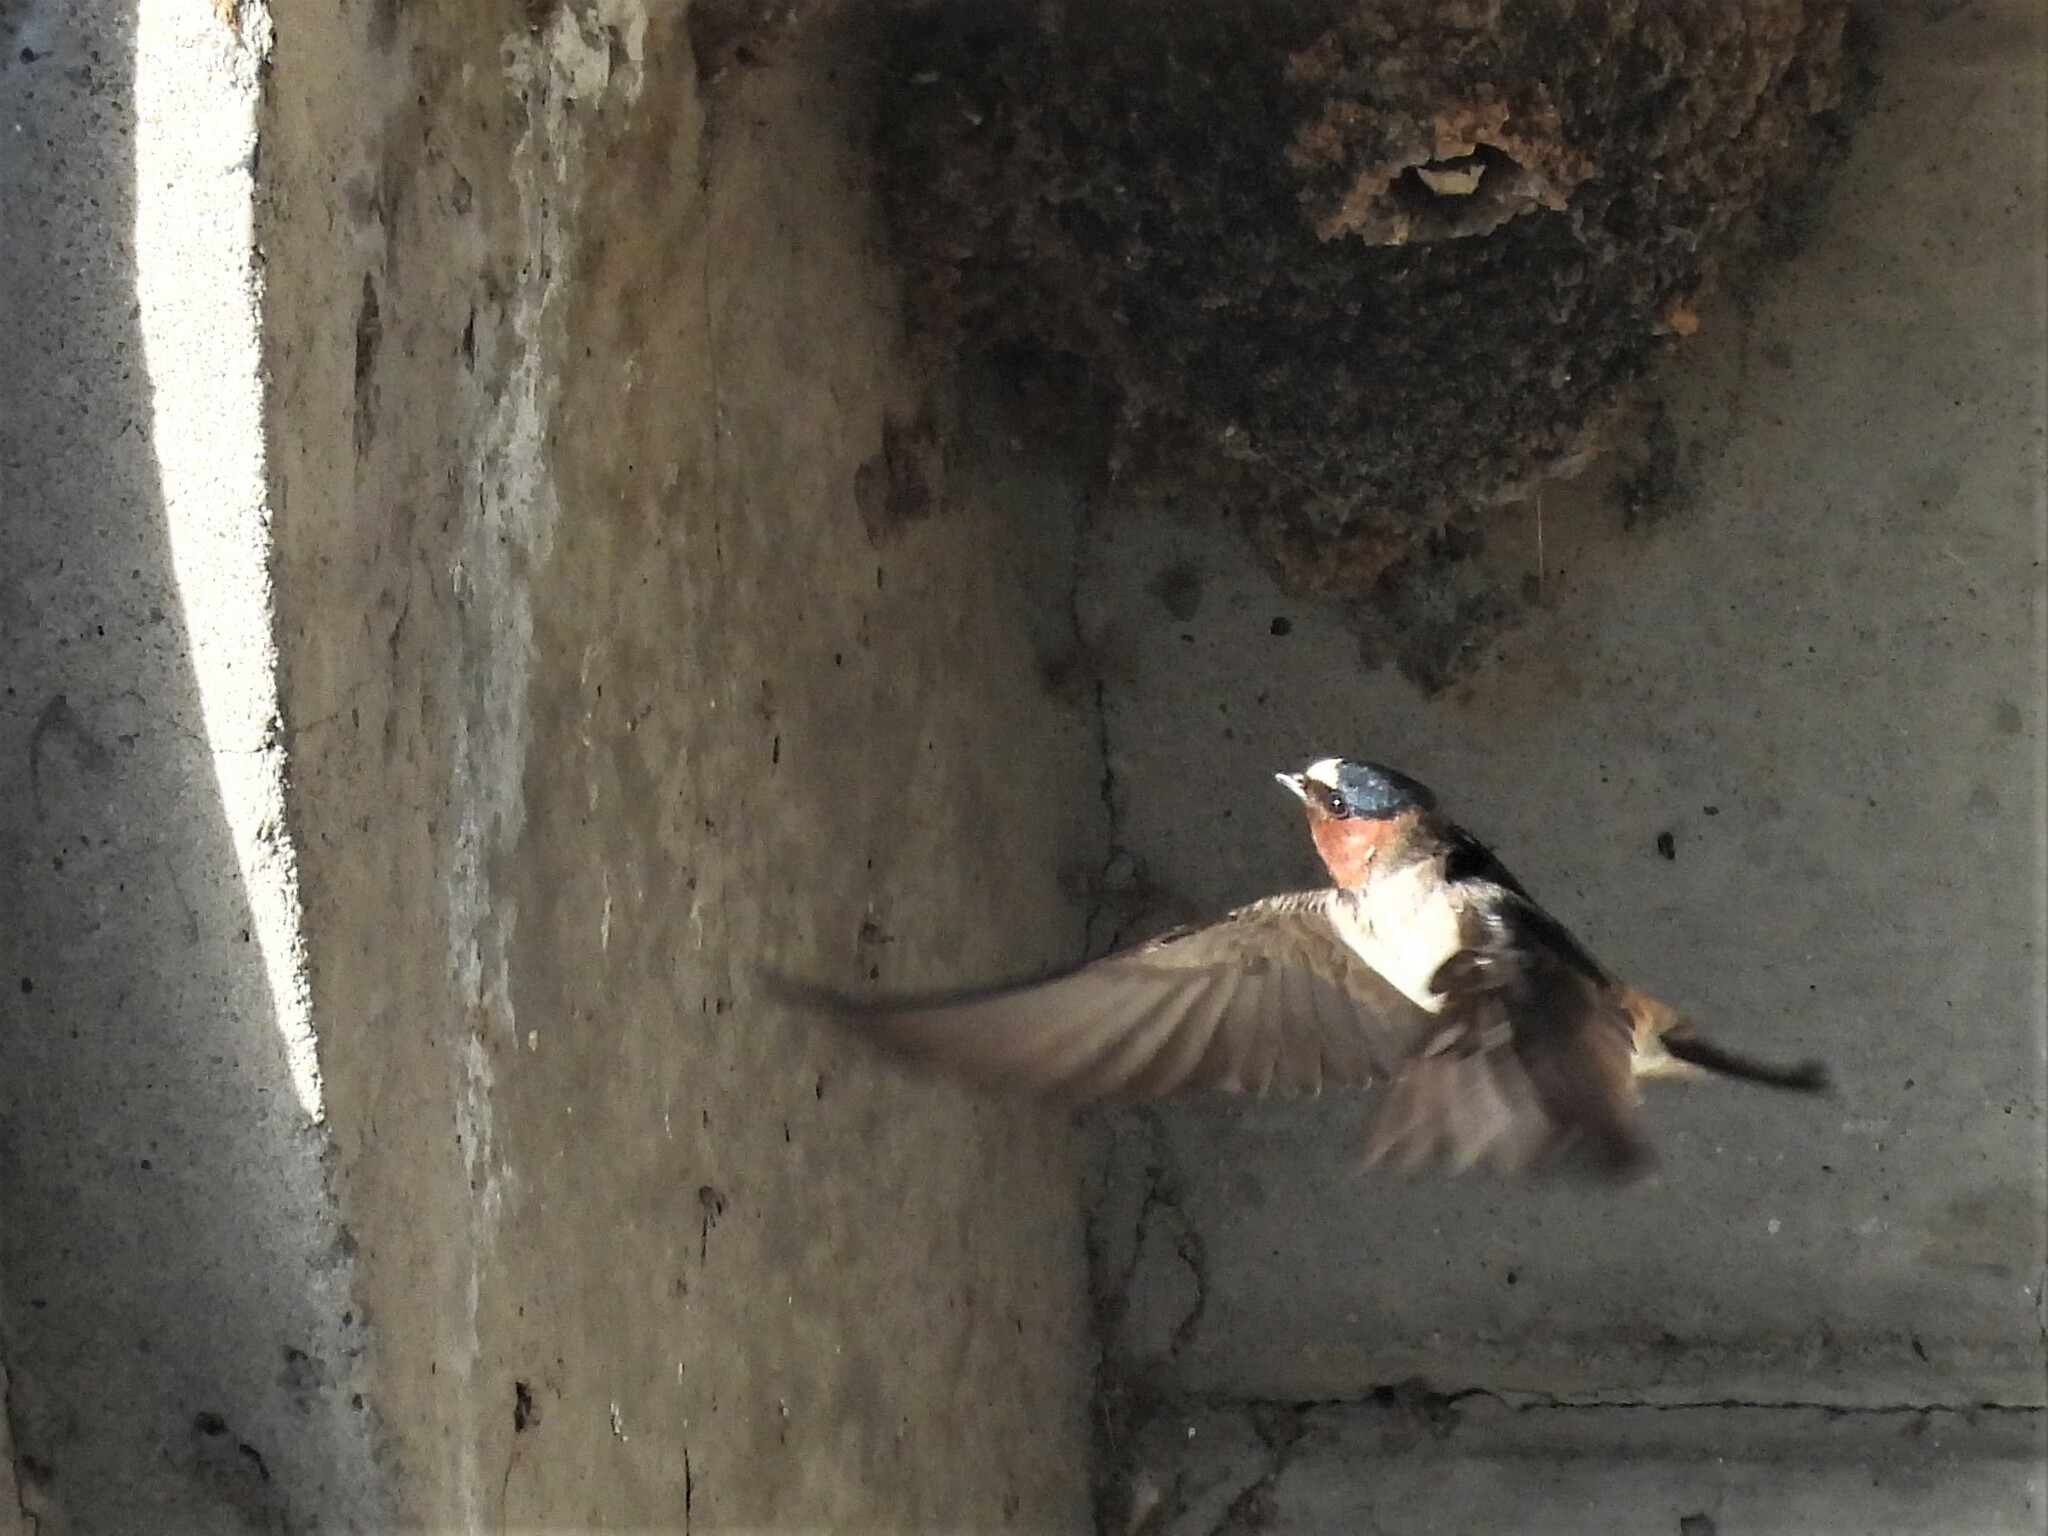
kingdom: Animalia
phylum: Chordata
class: Aves
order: Passeriformes
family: Hirundinidae
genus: Petrochelidon
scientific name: Petrochelidon pyrrhonota
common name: American cliff swallow
